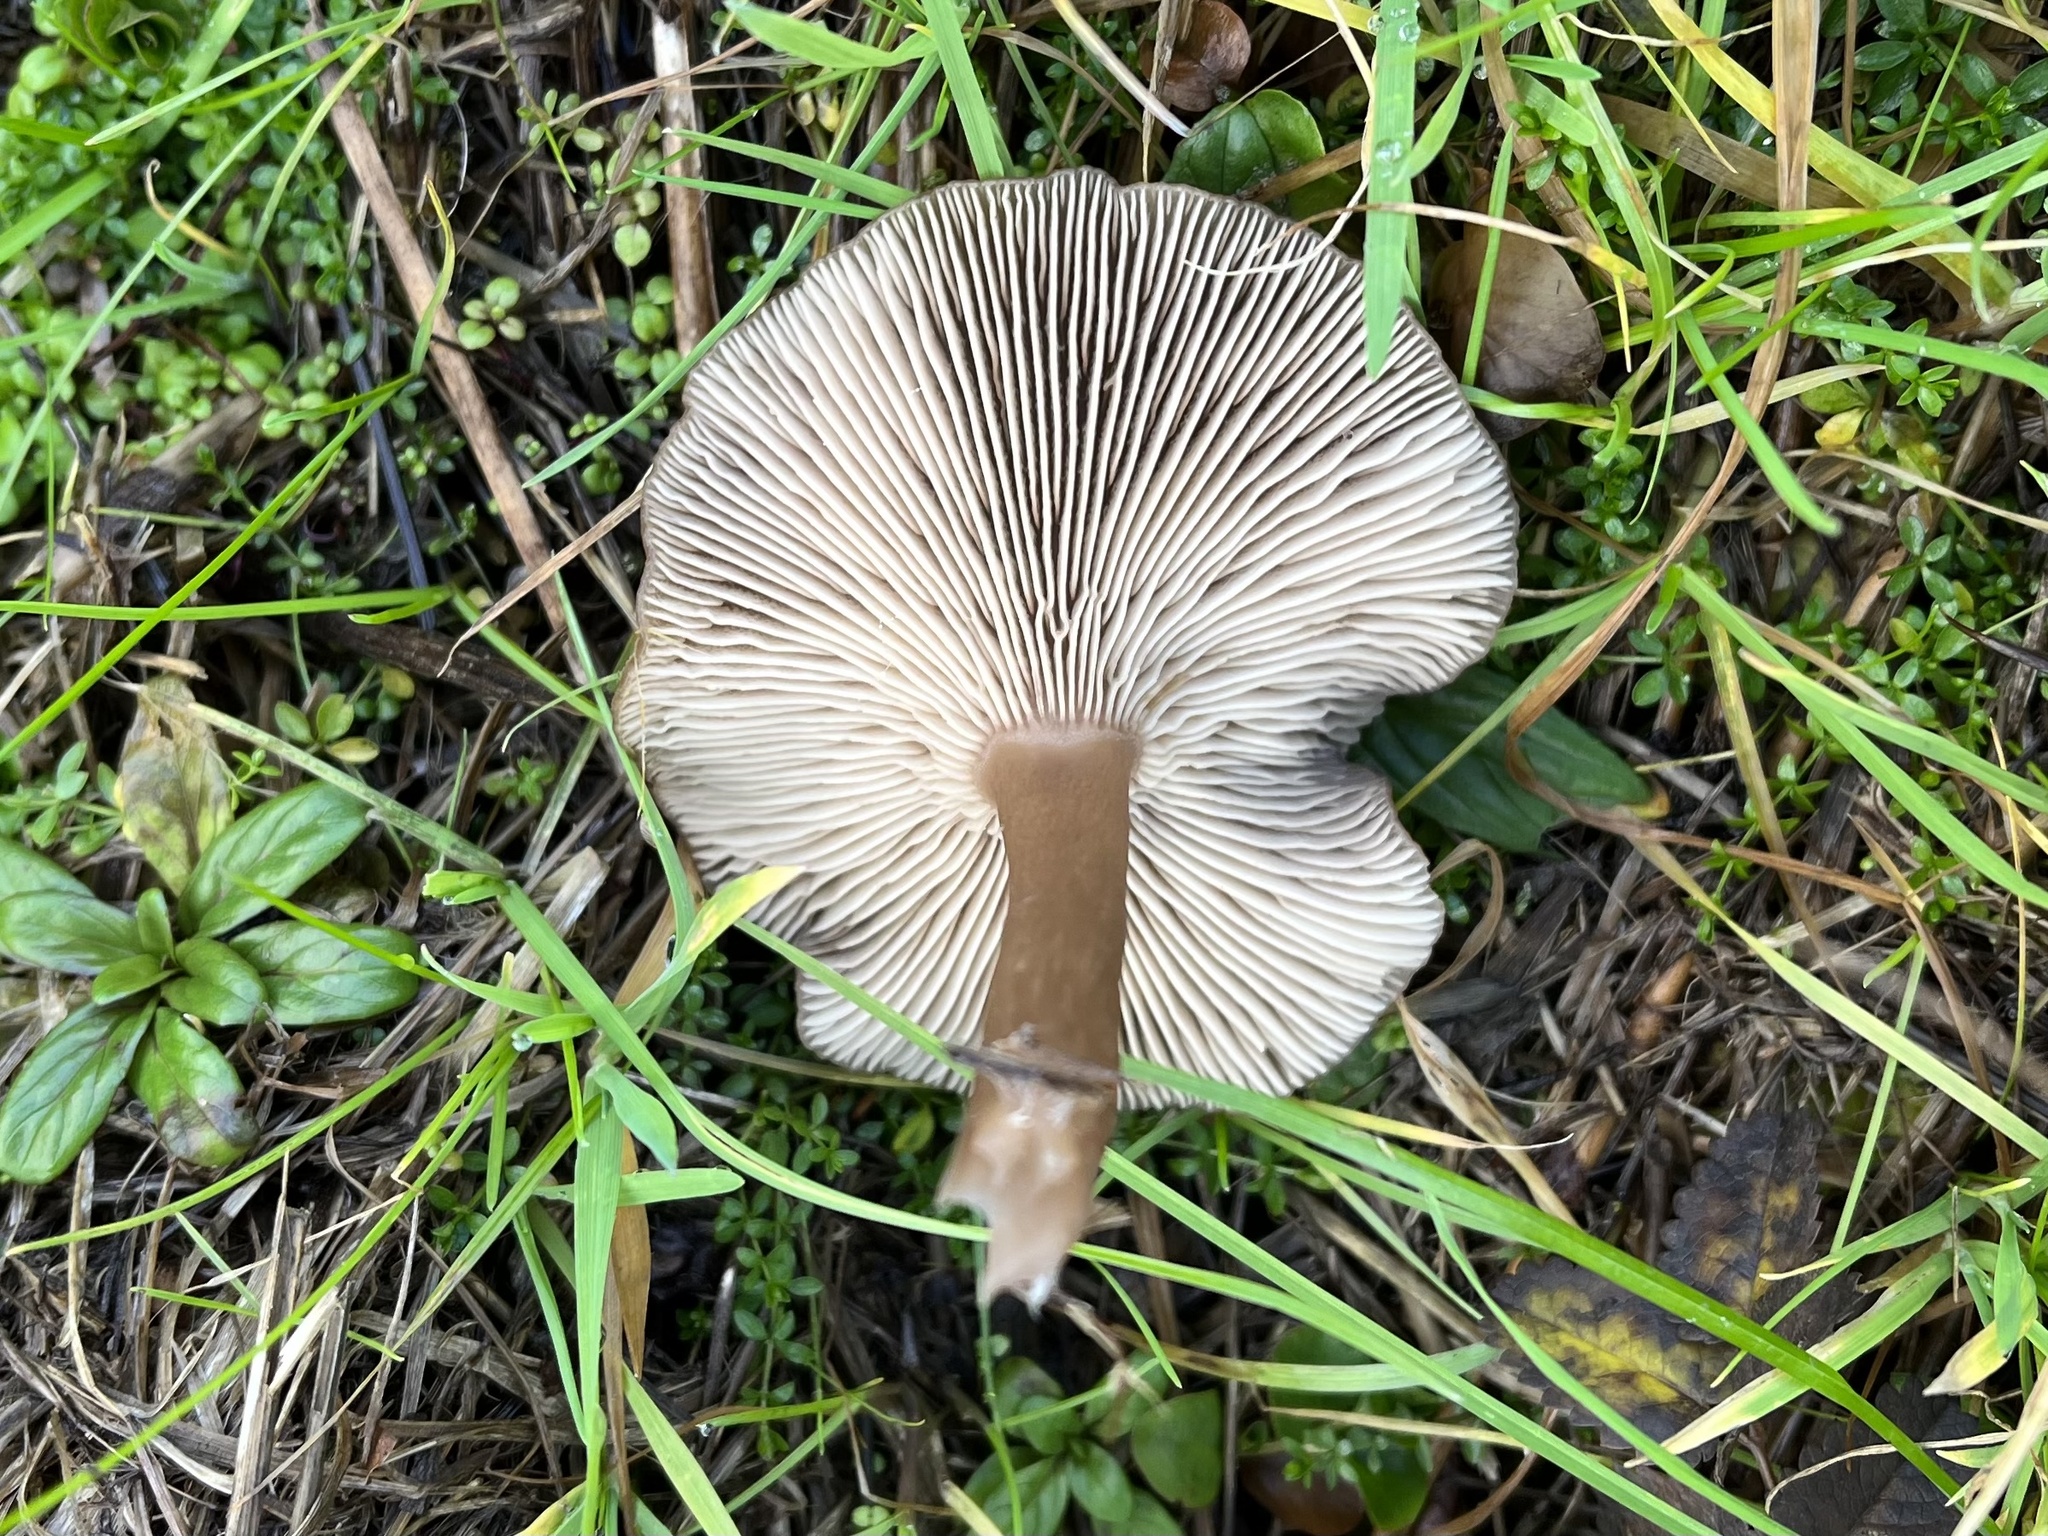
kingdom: Fungi
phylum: Basidiomycota
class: Agaricomycetes
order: Agaricales
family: Pseudoclitocybaceae
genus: Pseudoclitocybe
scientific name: Pseudoclitocybe cyathiformis
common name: Goblet
